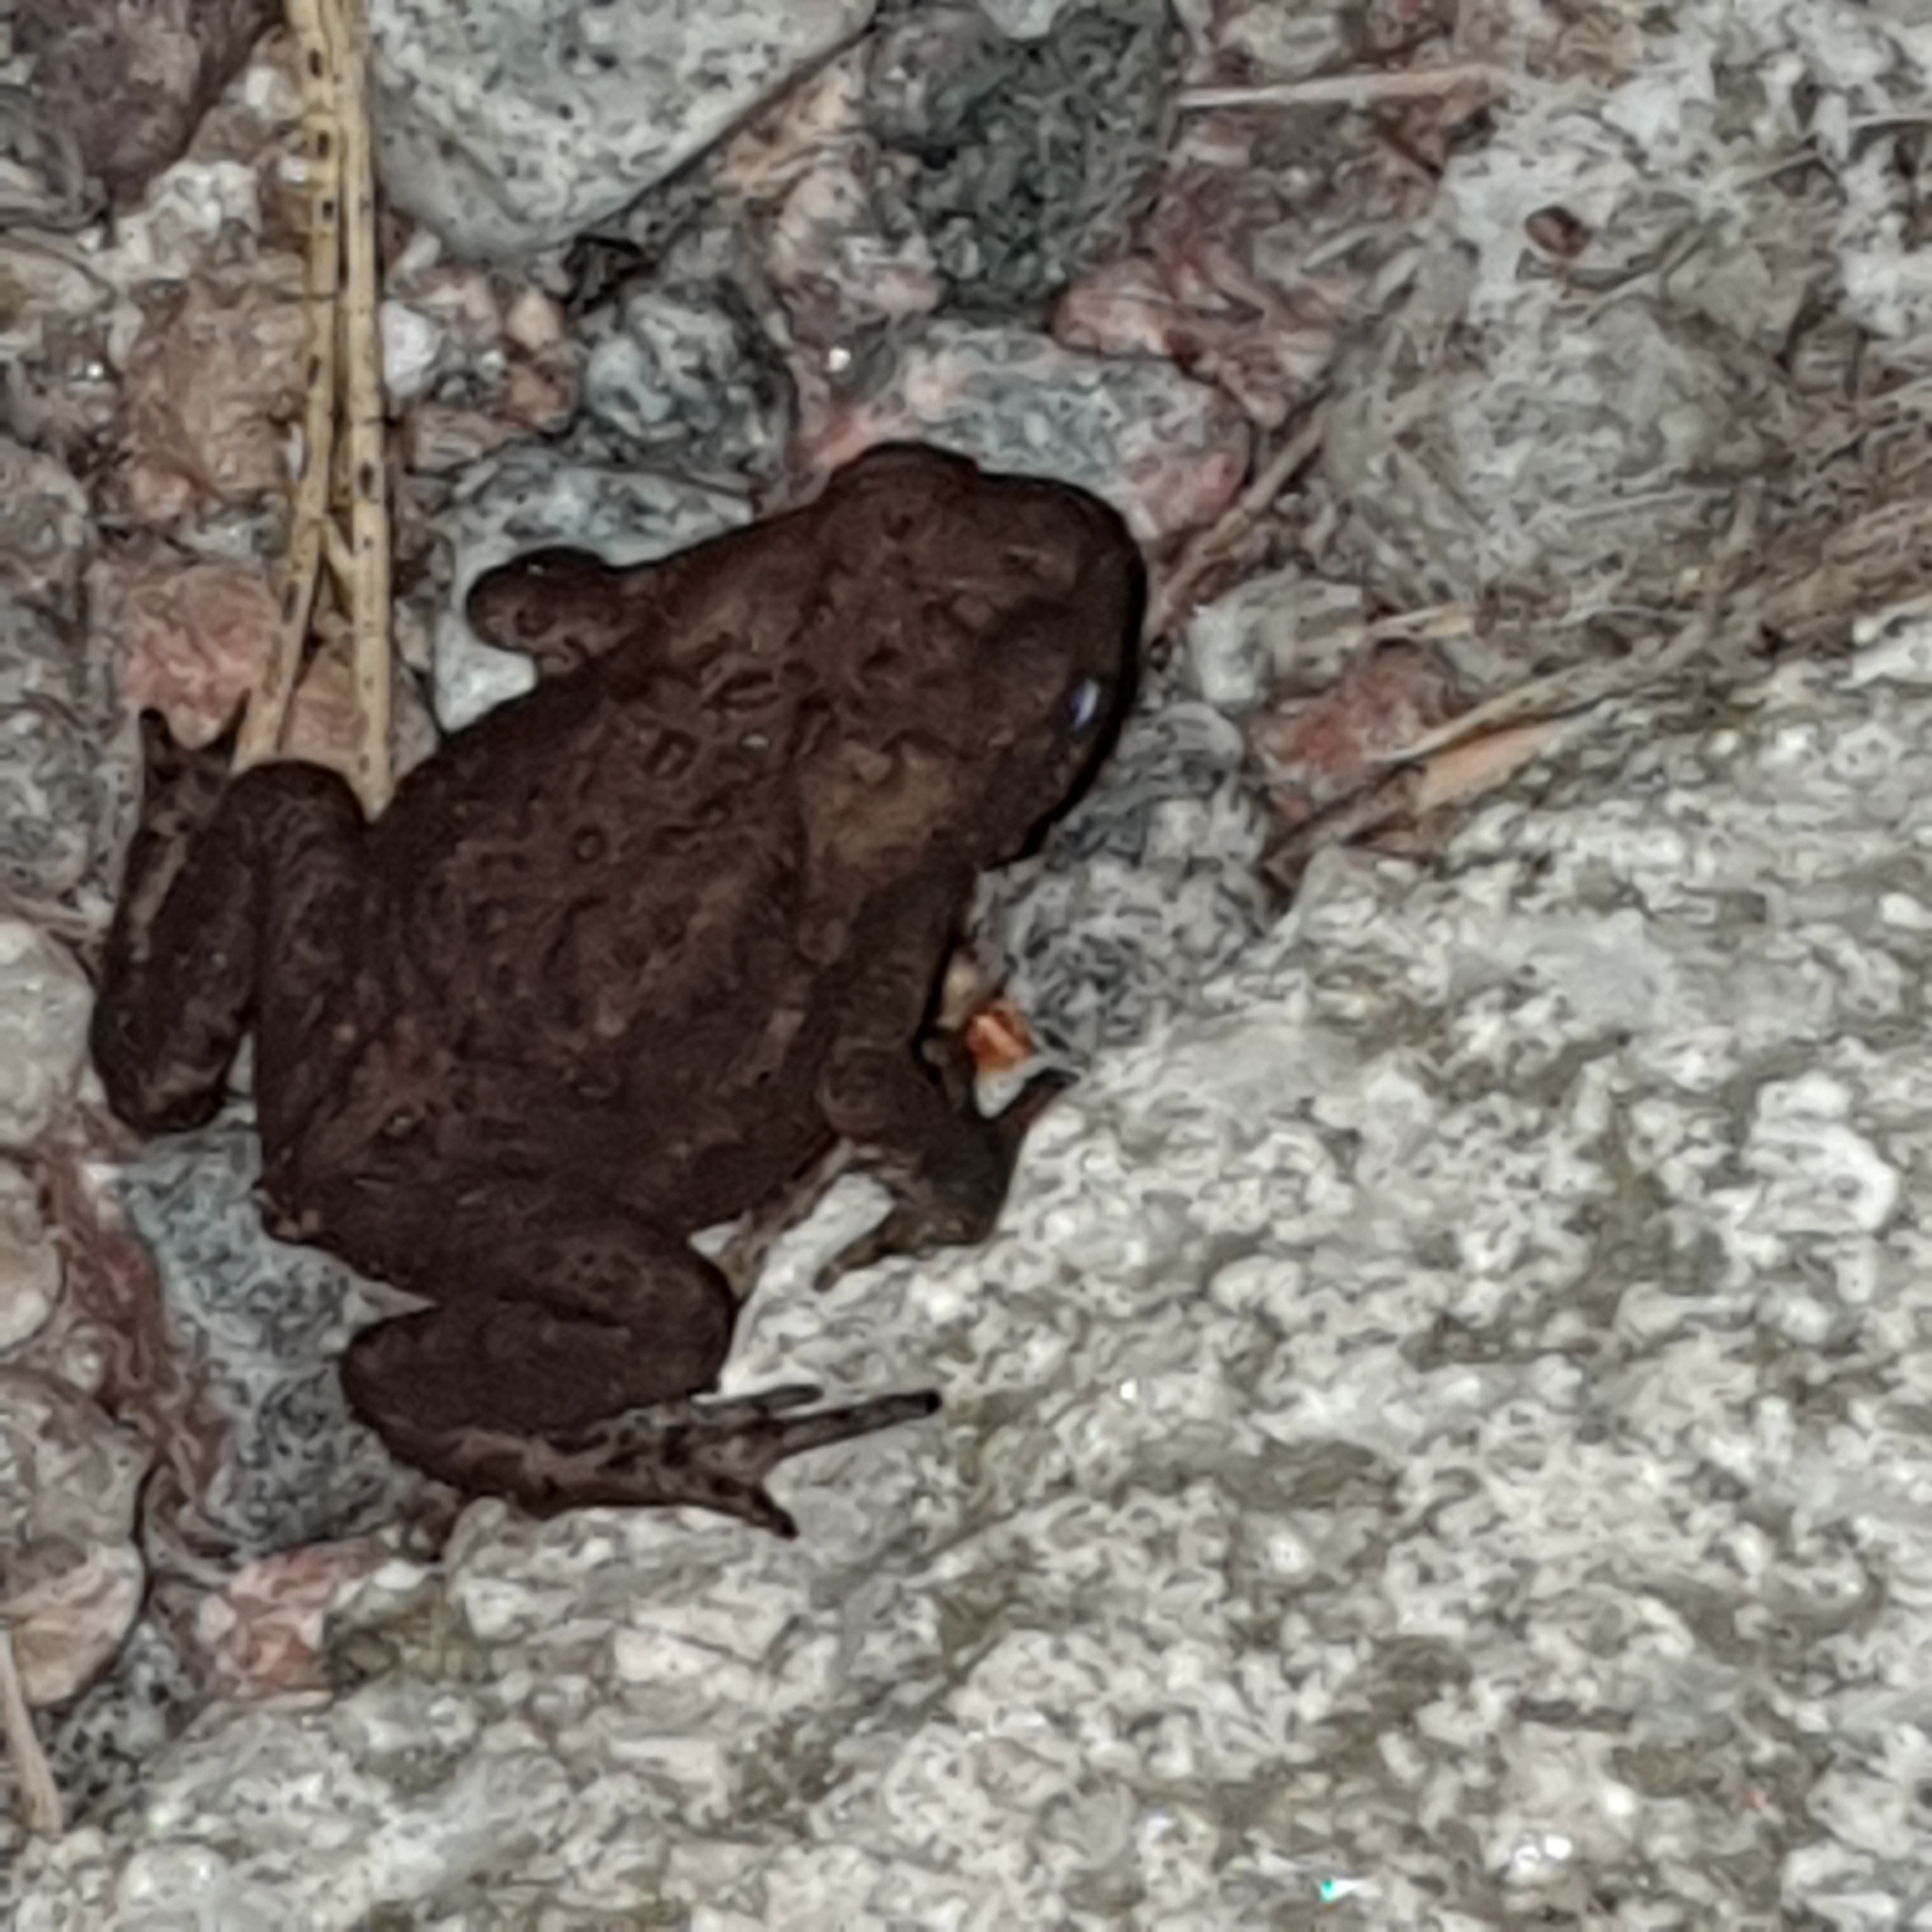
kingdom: Animalia
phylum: Chordata
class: Amphibia
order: Anura
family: Bufonidae
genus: Bufo
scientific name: Bufo bufo
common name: Common toad
